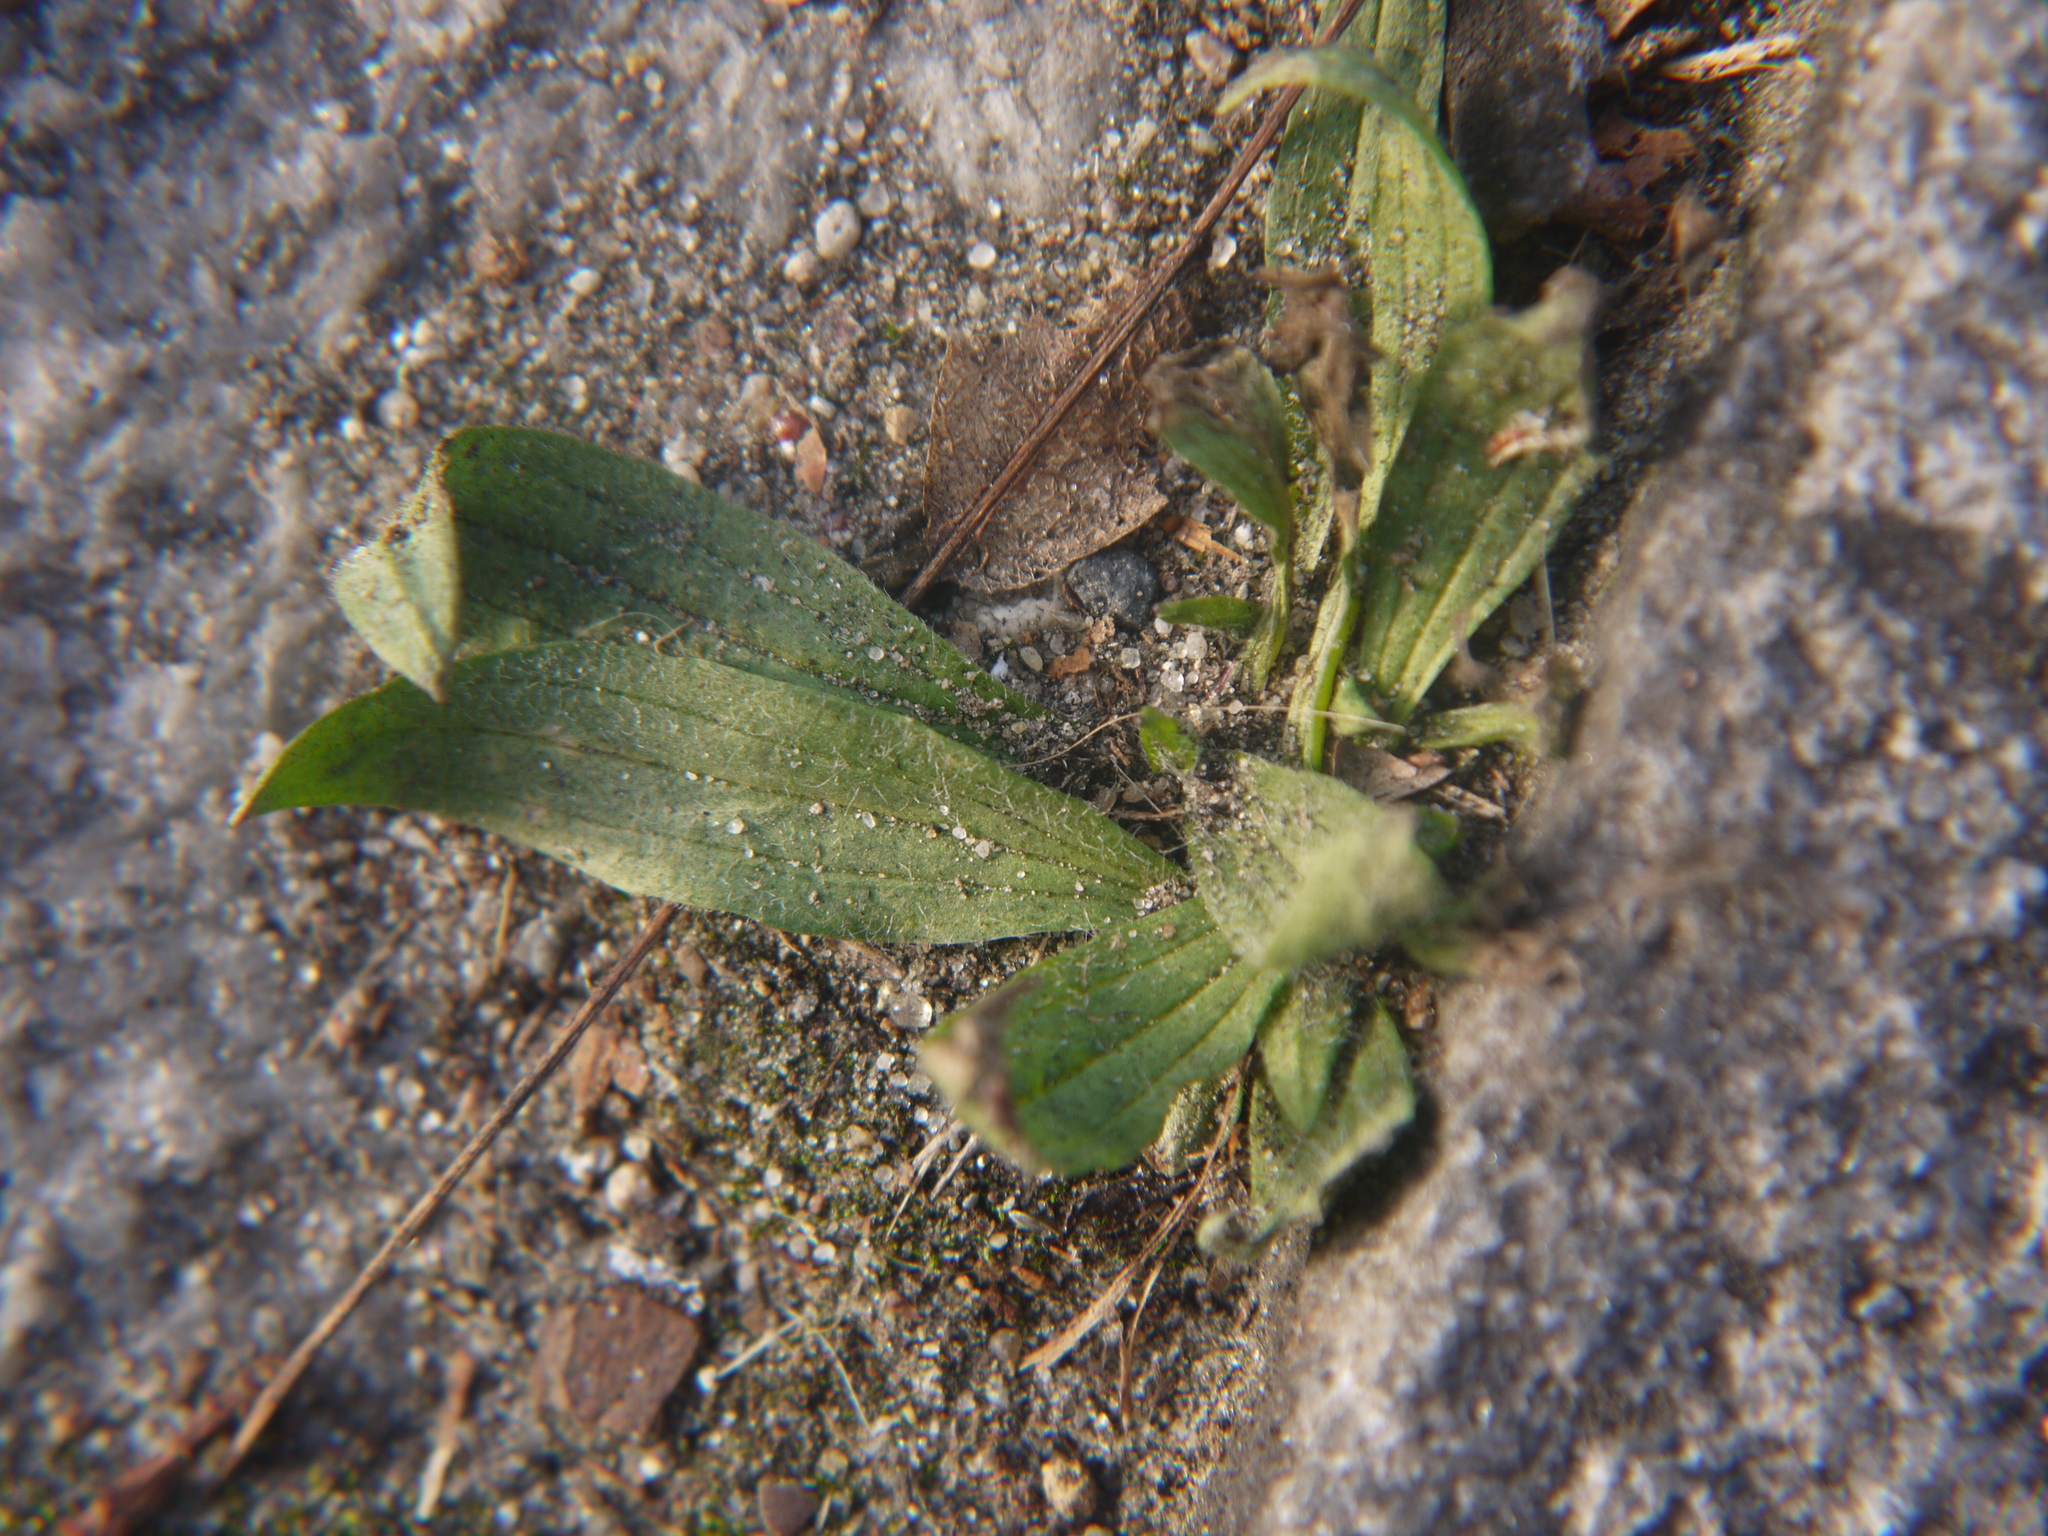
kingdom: Plantae
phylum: Tracheophyta
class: Magnoliopsida
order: Lamiales
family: Plantaginaceae
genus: Plantago
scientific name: Plantago lanceolata
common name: Ribwort plantain
